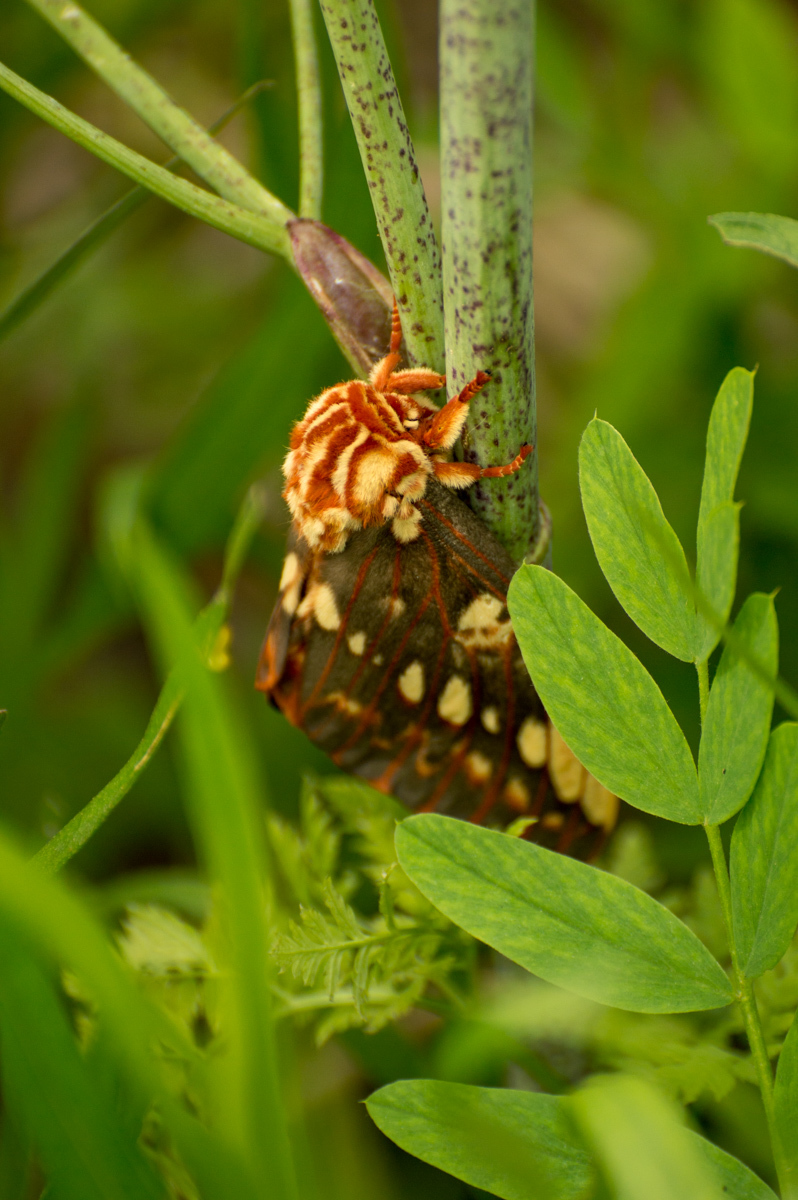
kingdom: Animalia
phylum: Arthropoda
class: Insecta
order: Lepidoptera
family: Saturniidae
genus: Citheronia
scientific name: Citheronia brissotii
